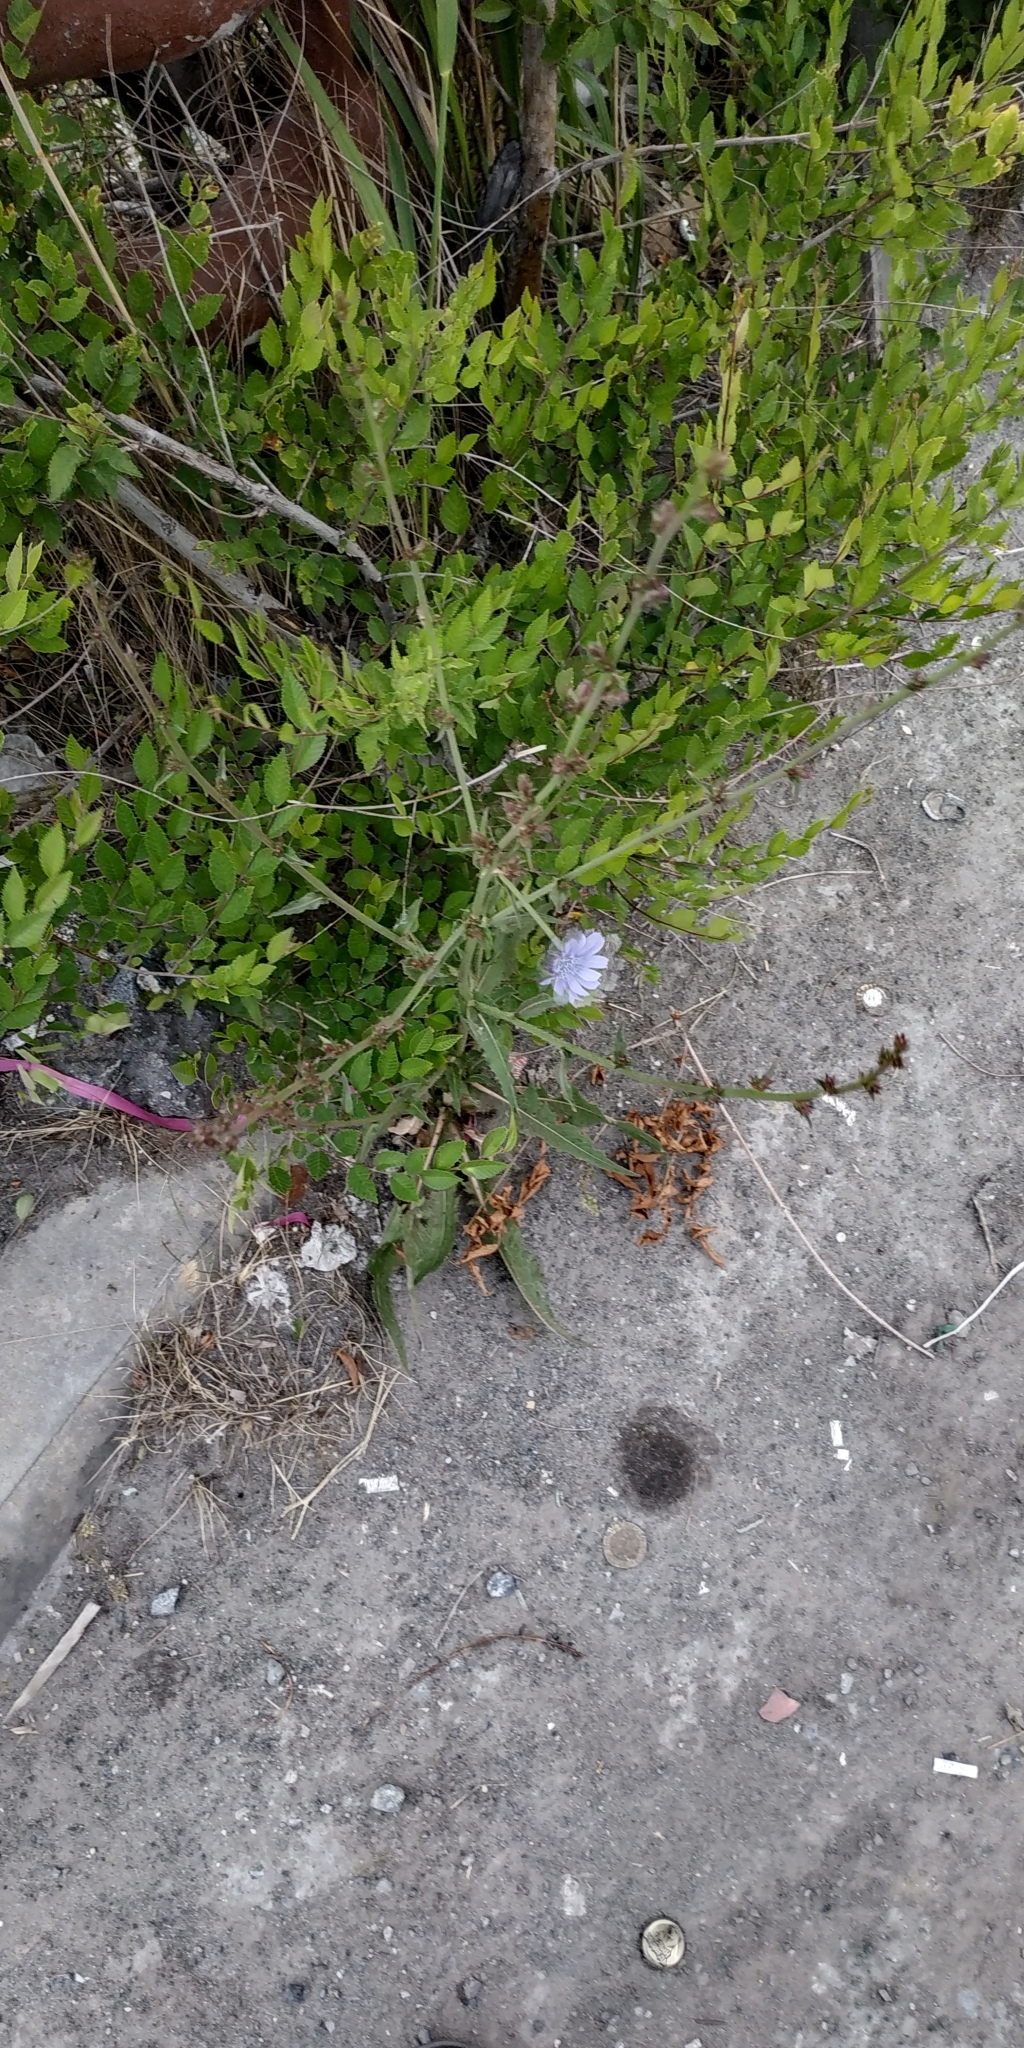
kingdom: Plantae
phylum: Tracheophyta
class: Magnoliopsida
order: Asterales
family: Asteraceae
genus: Cichorium
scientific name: Cichorium intybus
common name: Chicory
